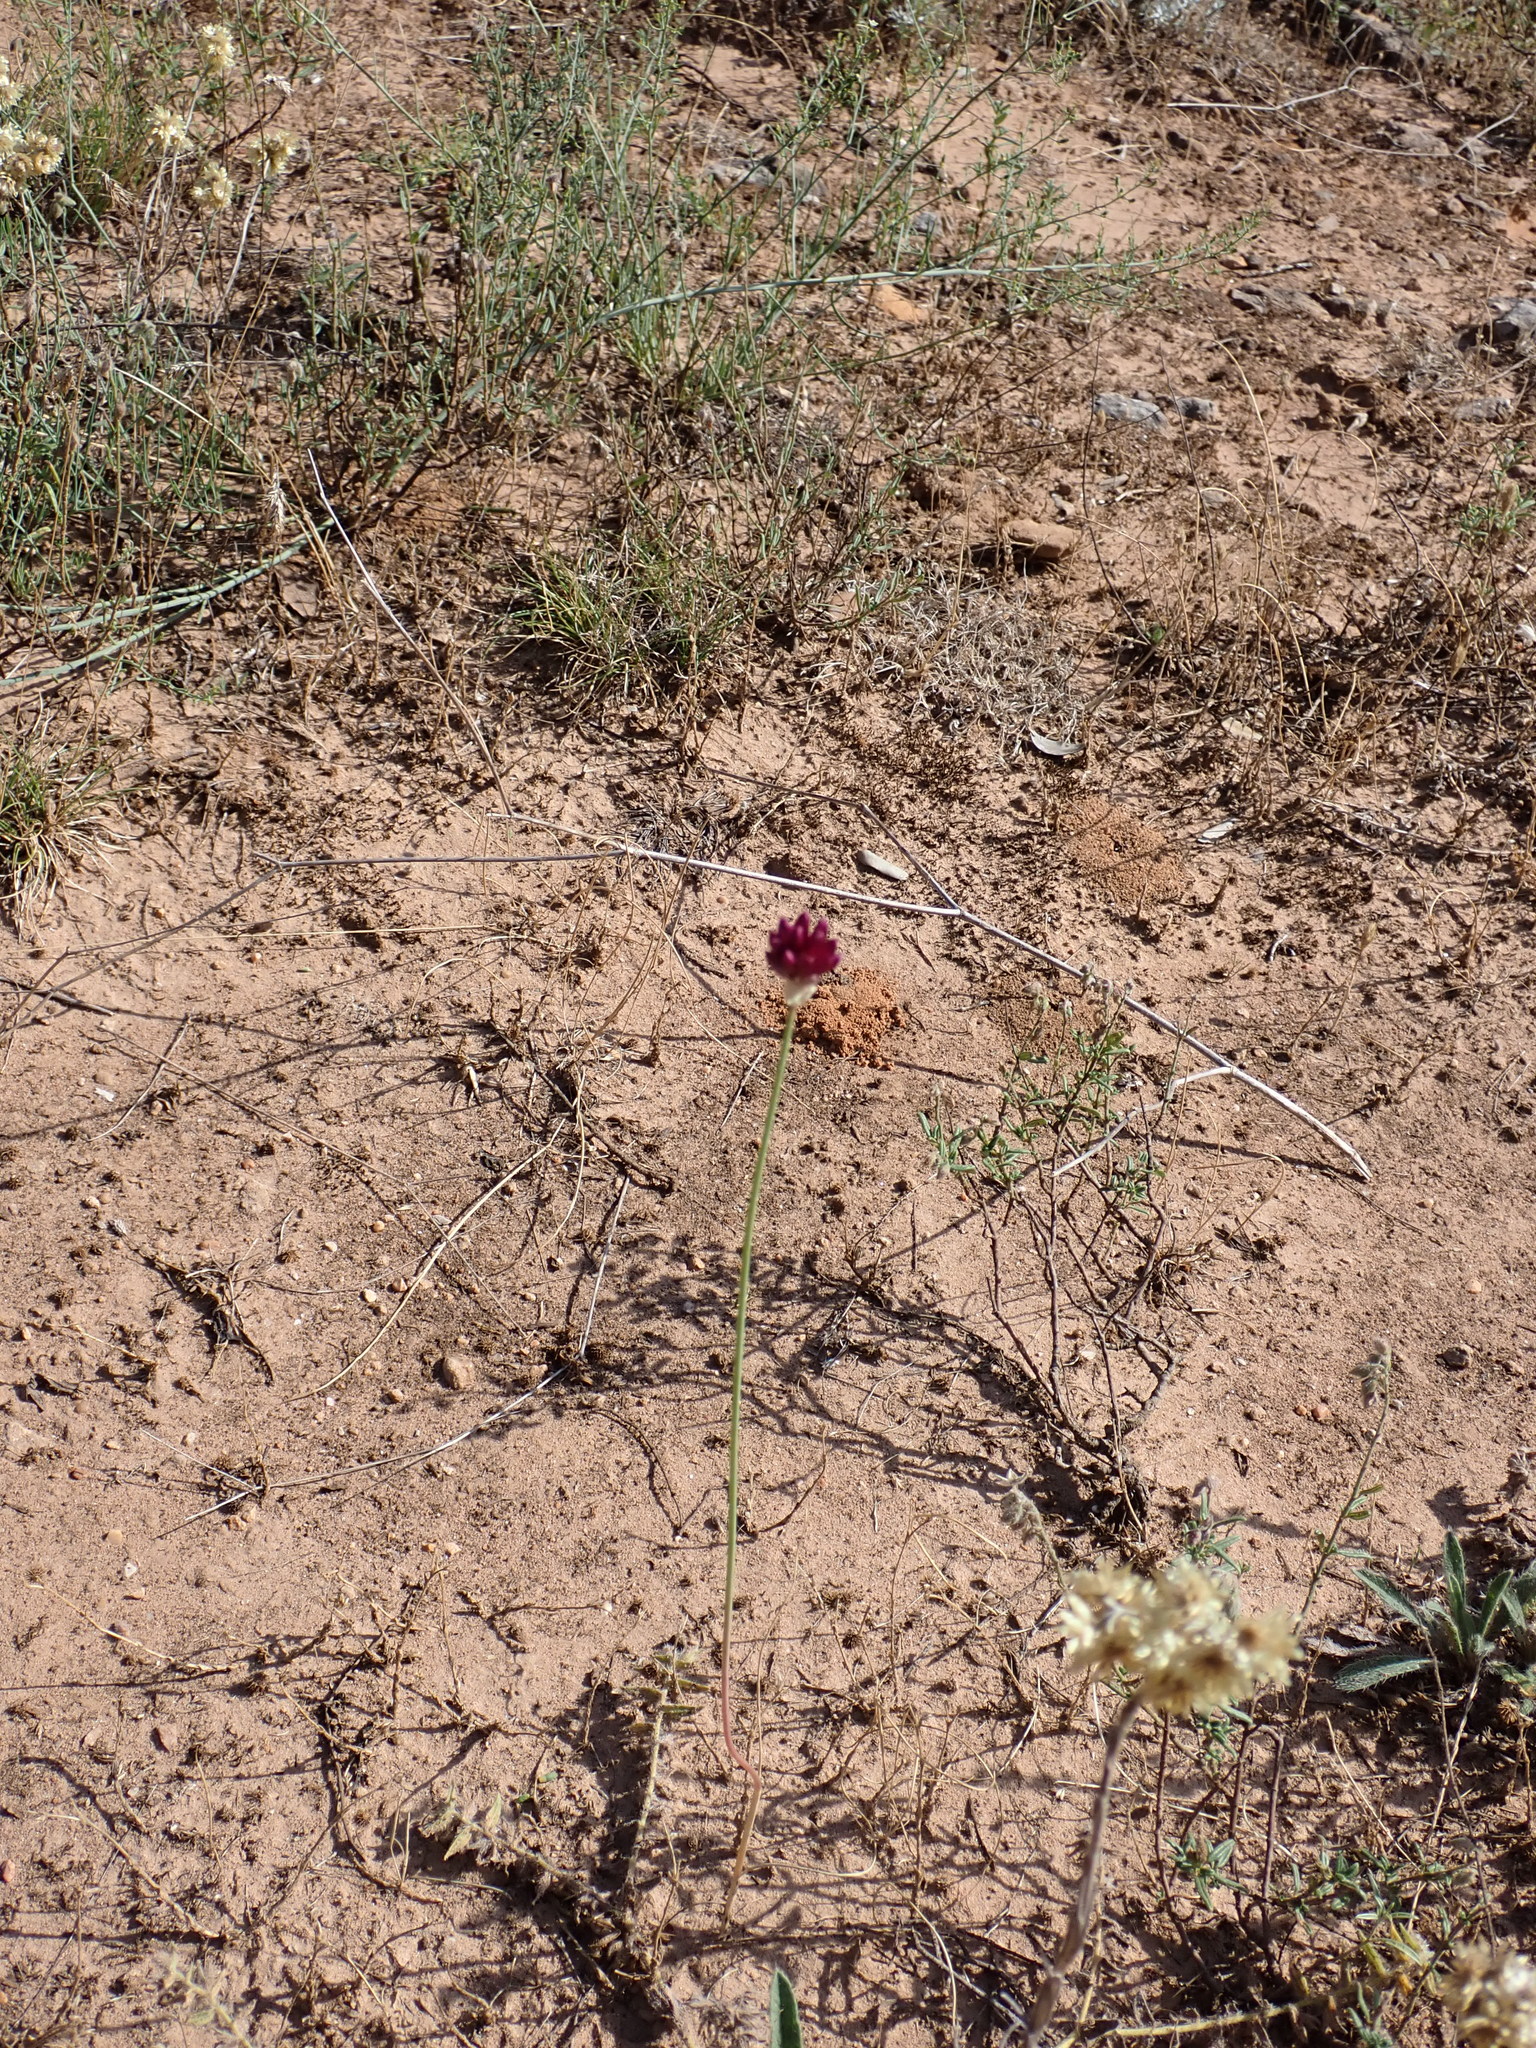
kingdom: Plantae
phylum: Tracheophyta
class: Liliopsida
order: Asparagales
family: Amaryllidaceae
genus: Allium
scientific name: Allium sphaerocephalon
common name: Round-headed leek
